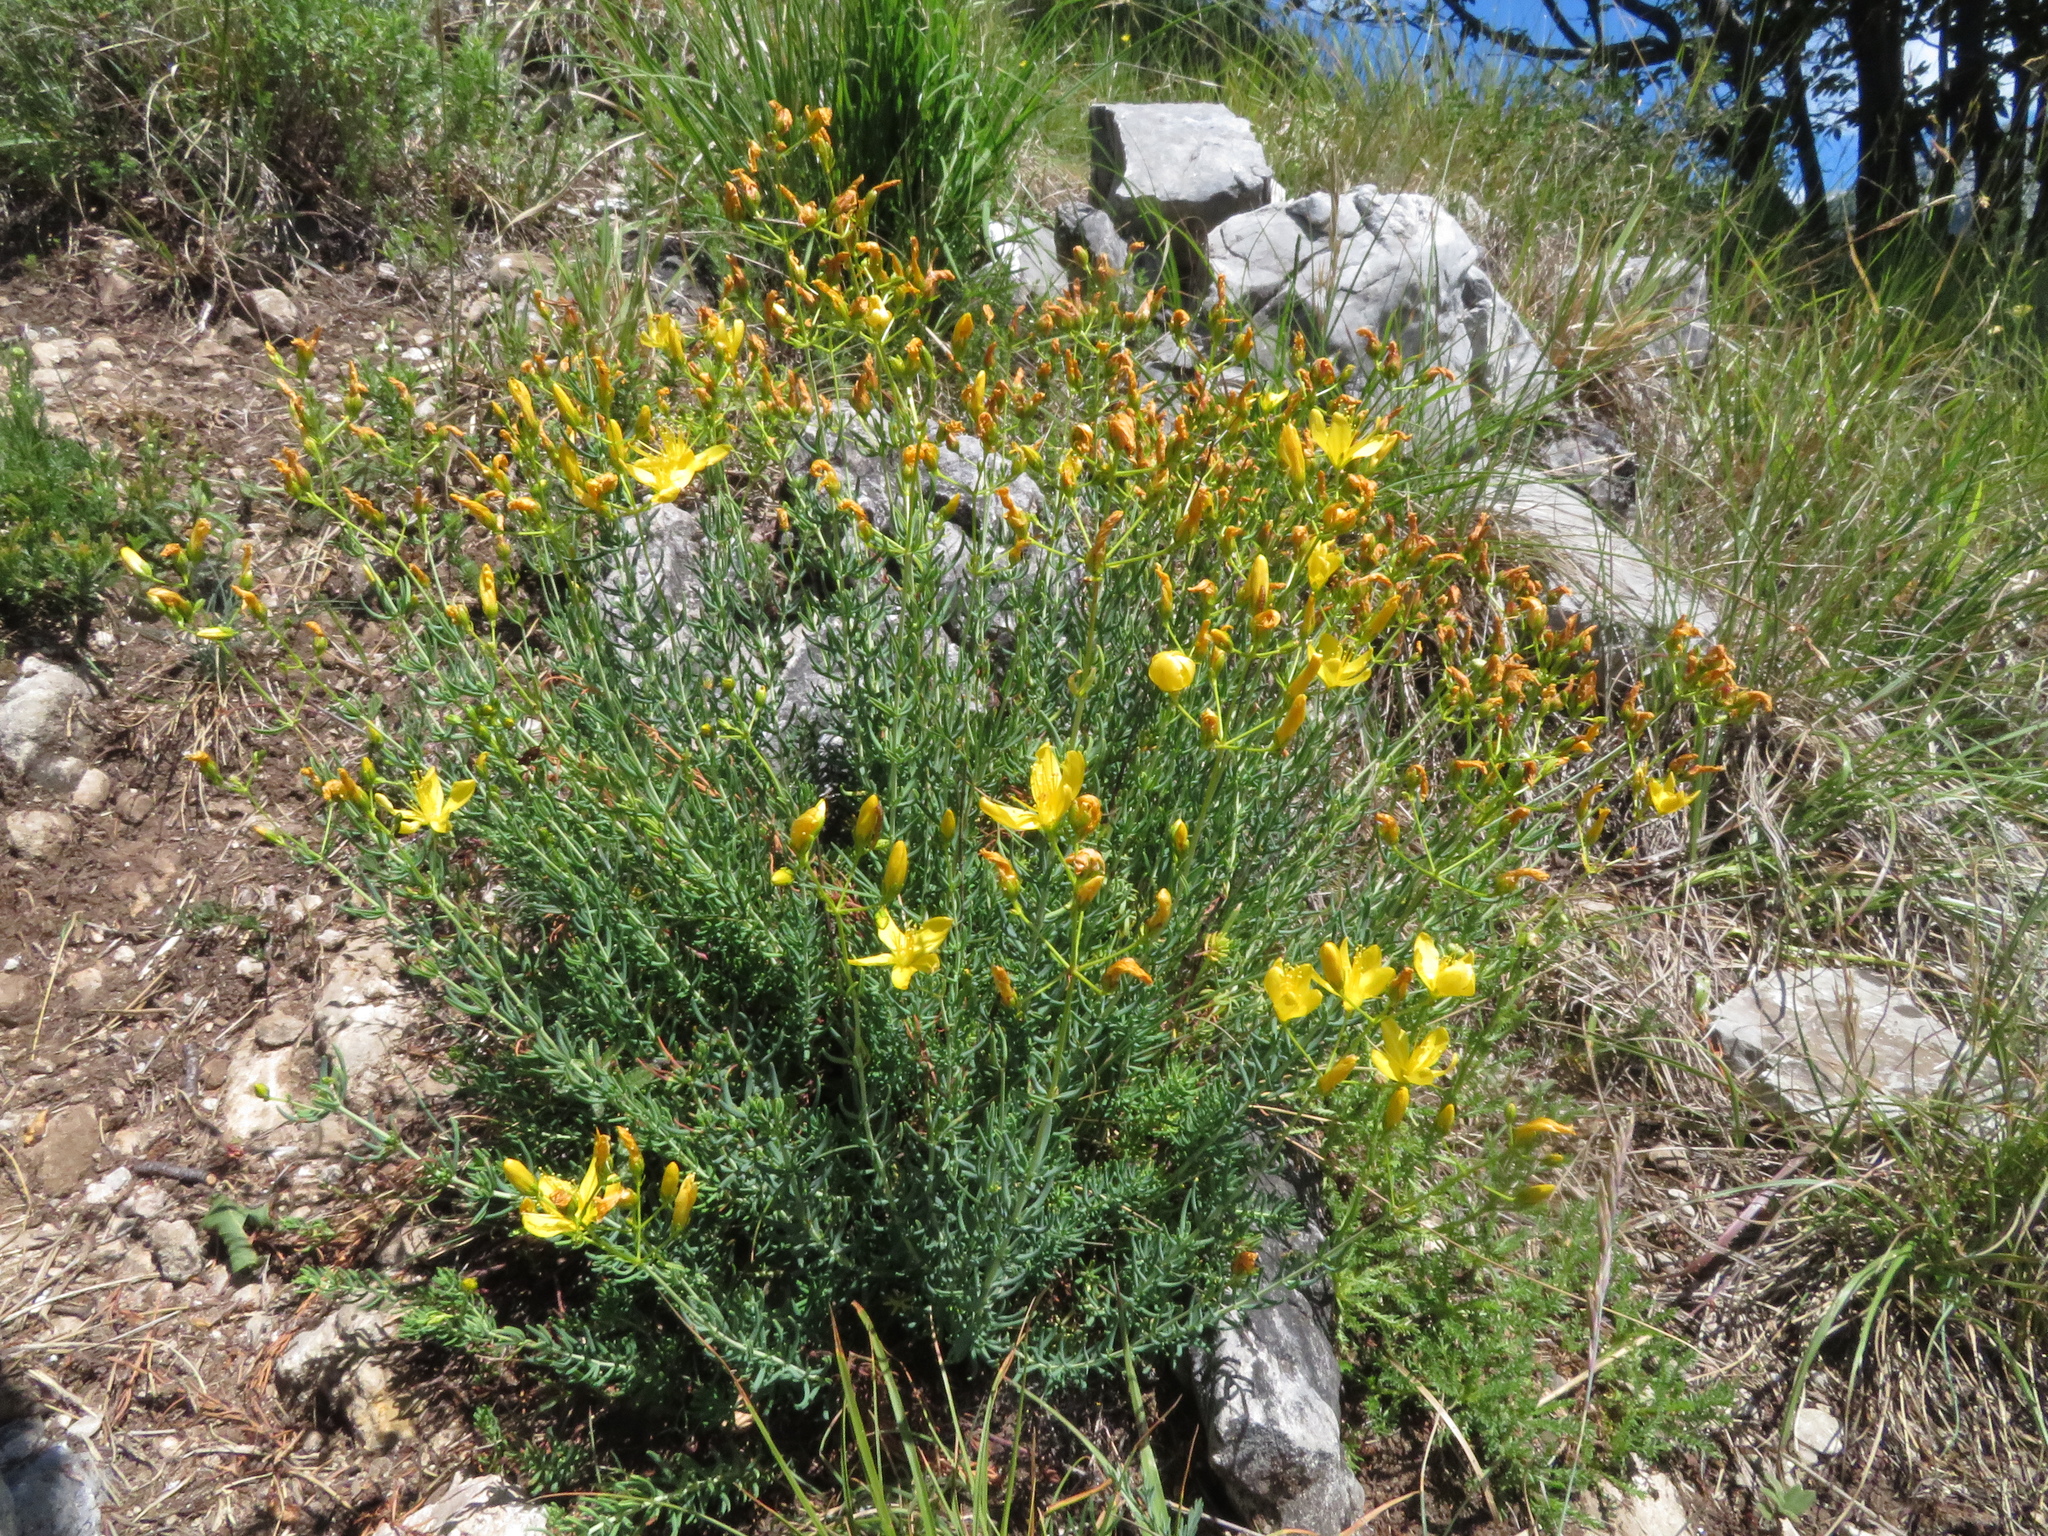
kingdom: Plantae
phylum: Tracheophyta
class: Magnoliopsida
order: Malpighiales
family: Hypericaceae
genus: Hypericum
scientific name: Hypericum coris
